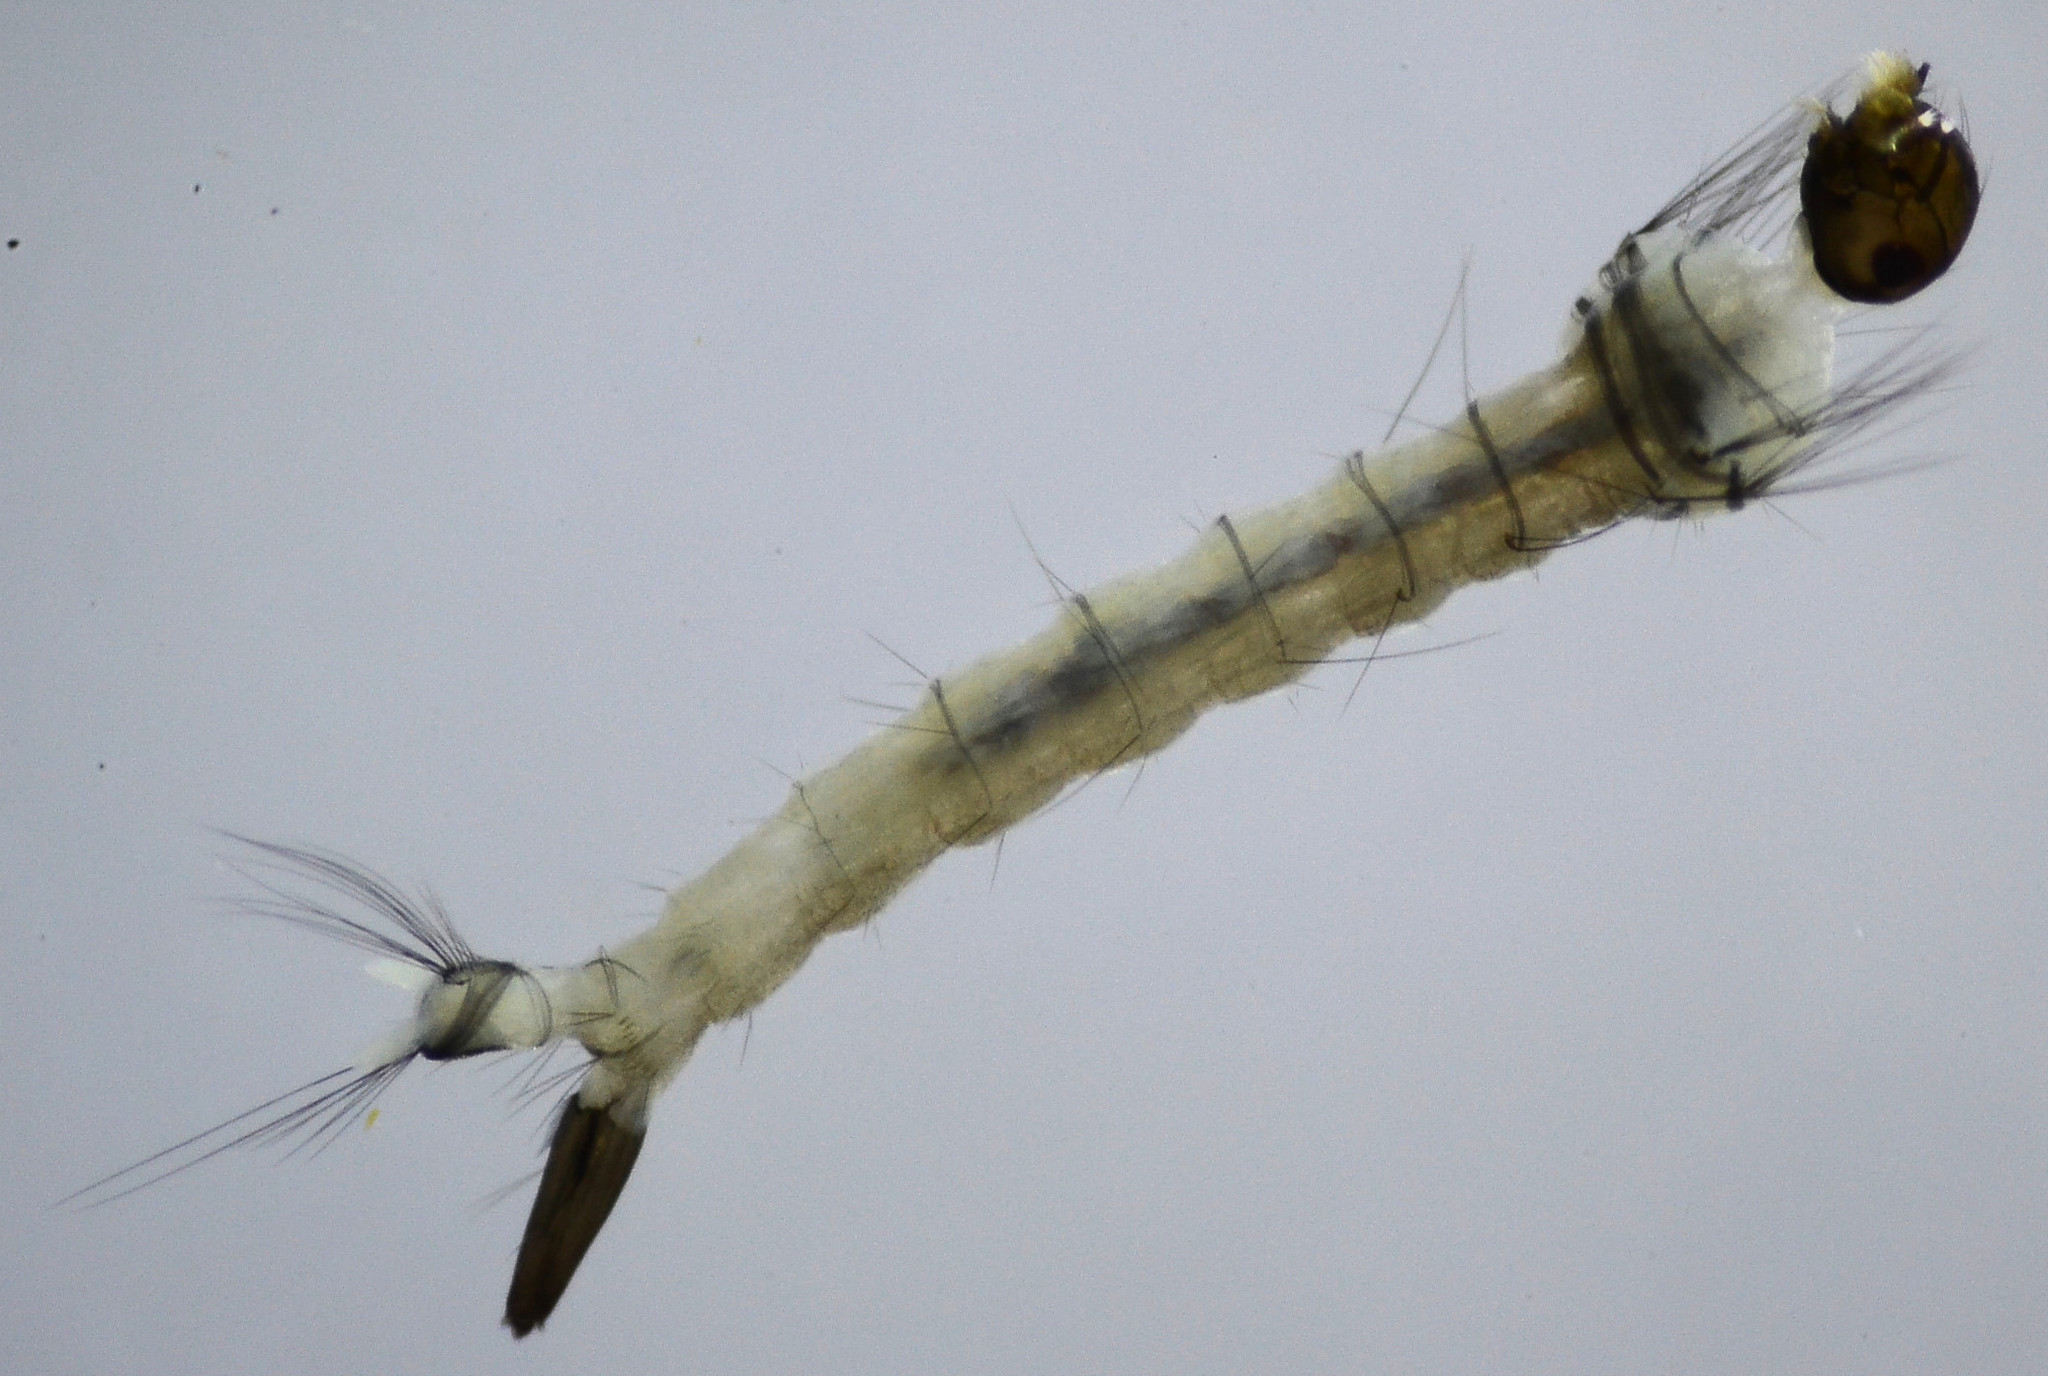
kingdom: Animalia
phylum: Arthropoda
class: Insecta
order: Diptera
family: Culicidae
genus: Aedes
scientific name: Aedes washinoi
